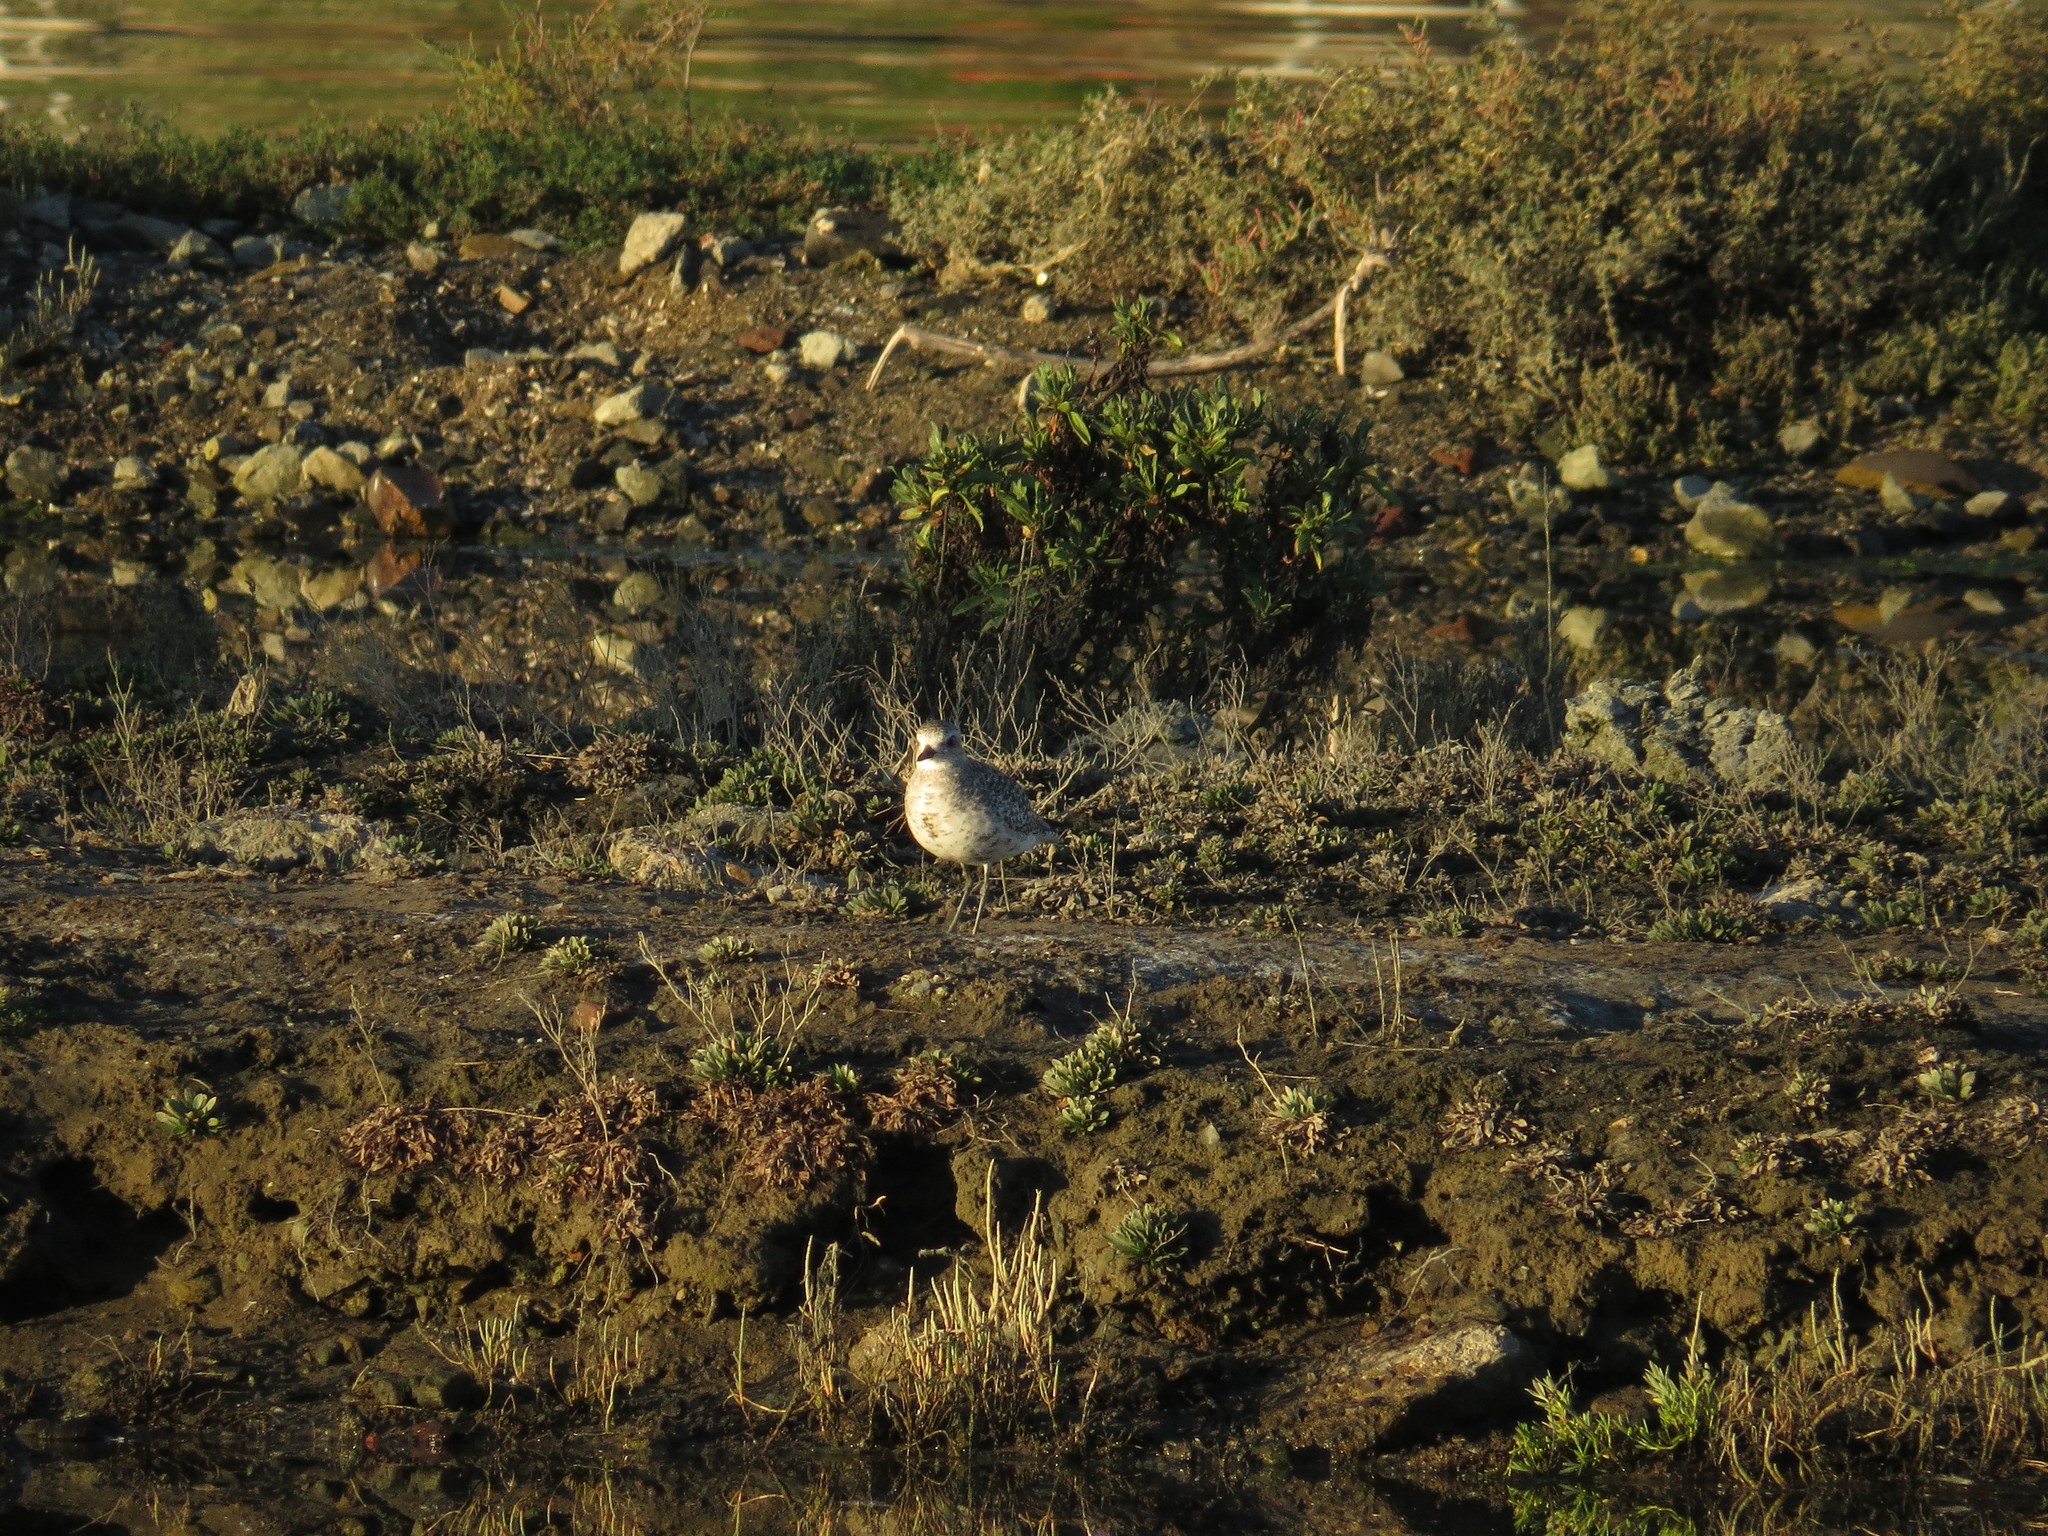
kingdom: Animalia
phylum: Chordata
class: Aves
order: Charadriiformes
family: Charadriidae
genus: Pluvialis
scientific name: Pluvialis squatarola
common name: Grey plover
